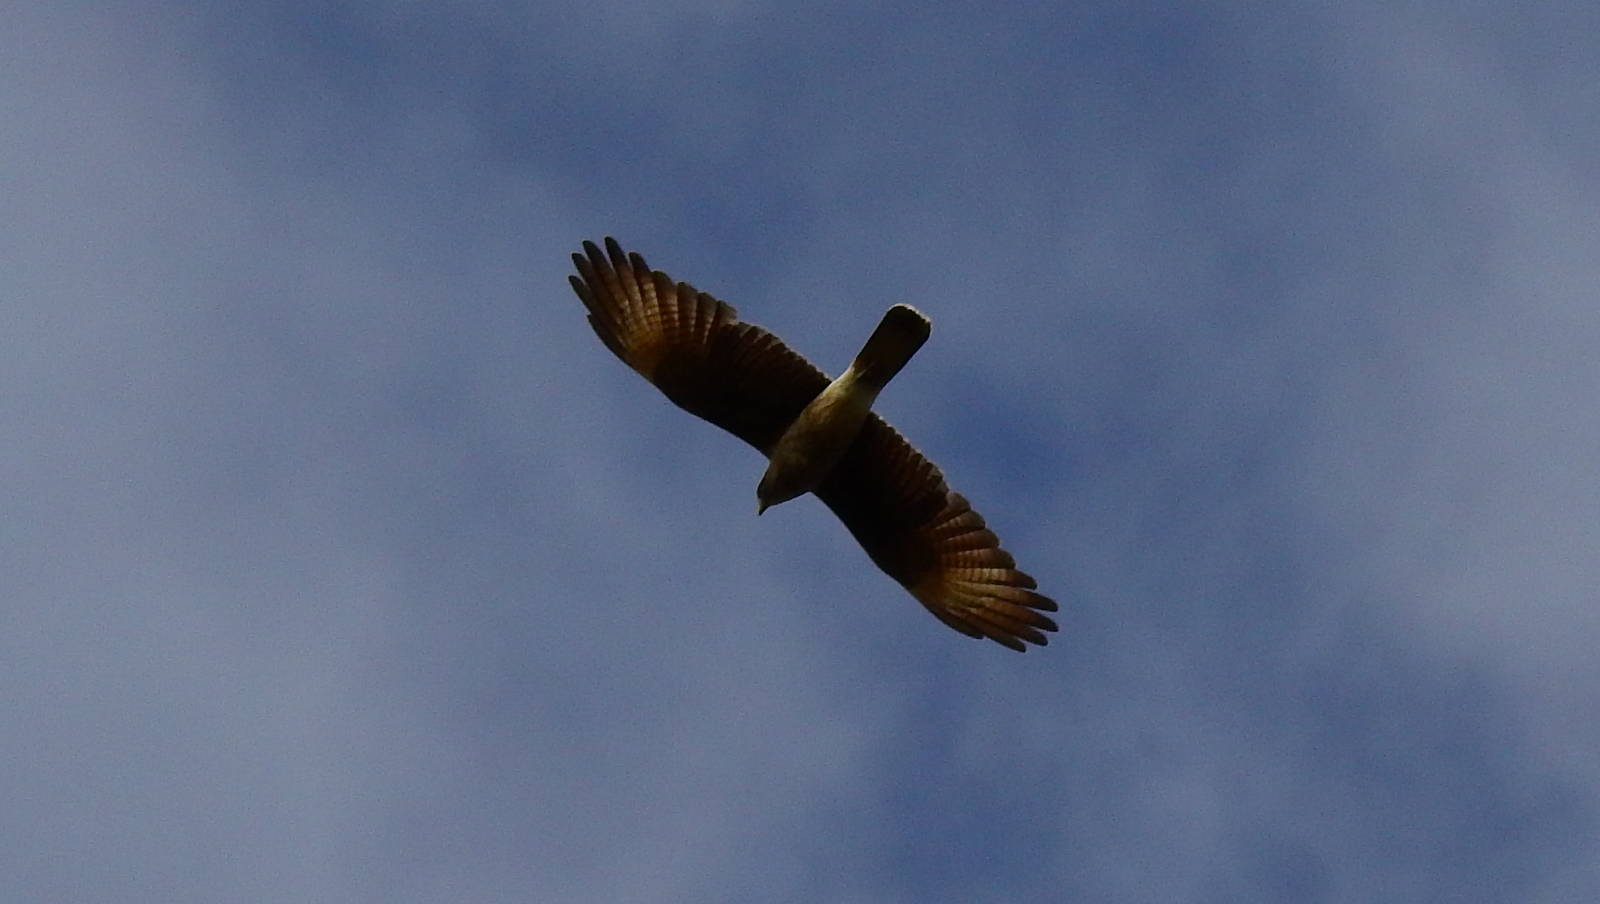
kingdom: Animalia
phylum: Chordata
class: Aves
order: Falconiformes
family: Falconidae
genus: Daptrius
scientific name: Daptrius
